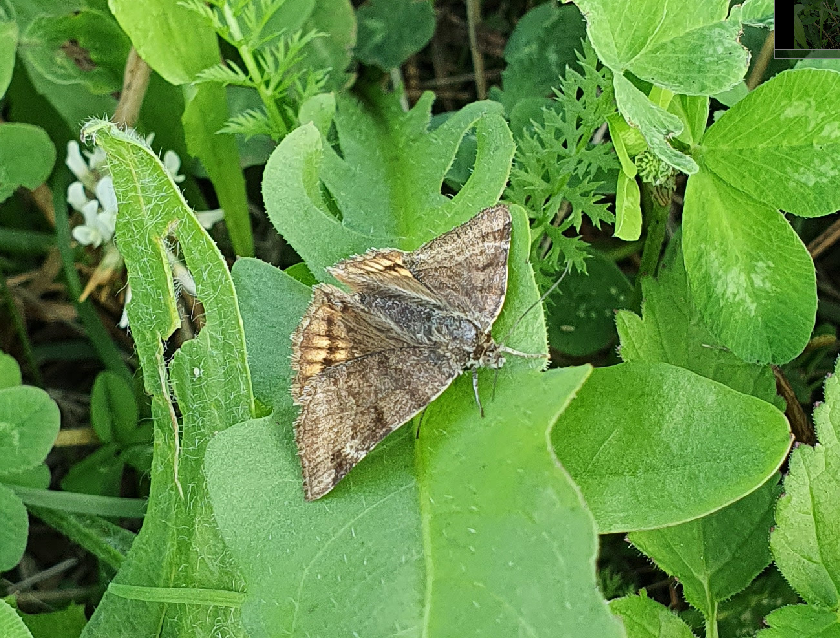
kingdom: Animalia
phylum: Arthropoda
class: Insecta
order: Lepidoptera
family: Erebidae
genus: Euclidia
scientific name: Euclidia glyphica
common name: Burnet companion
